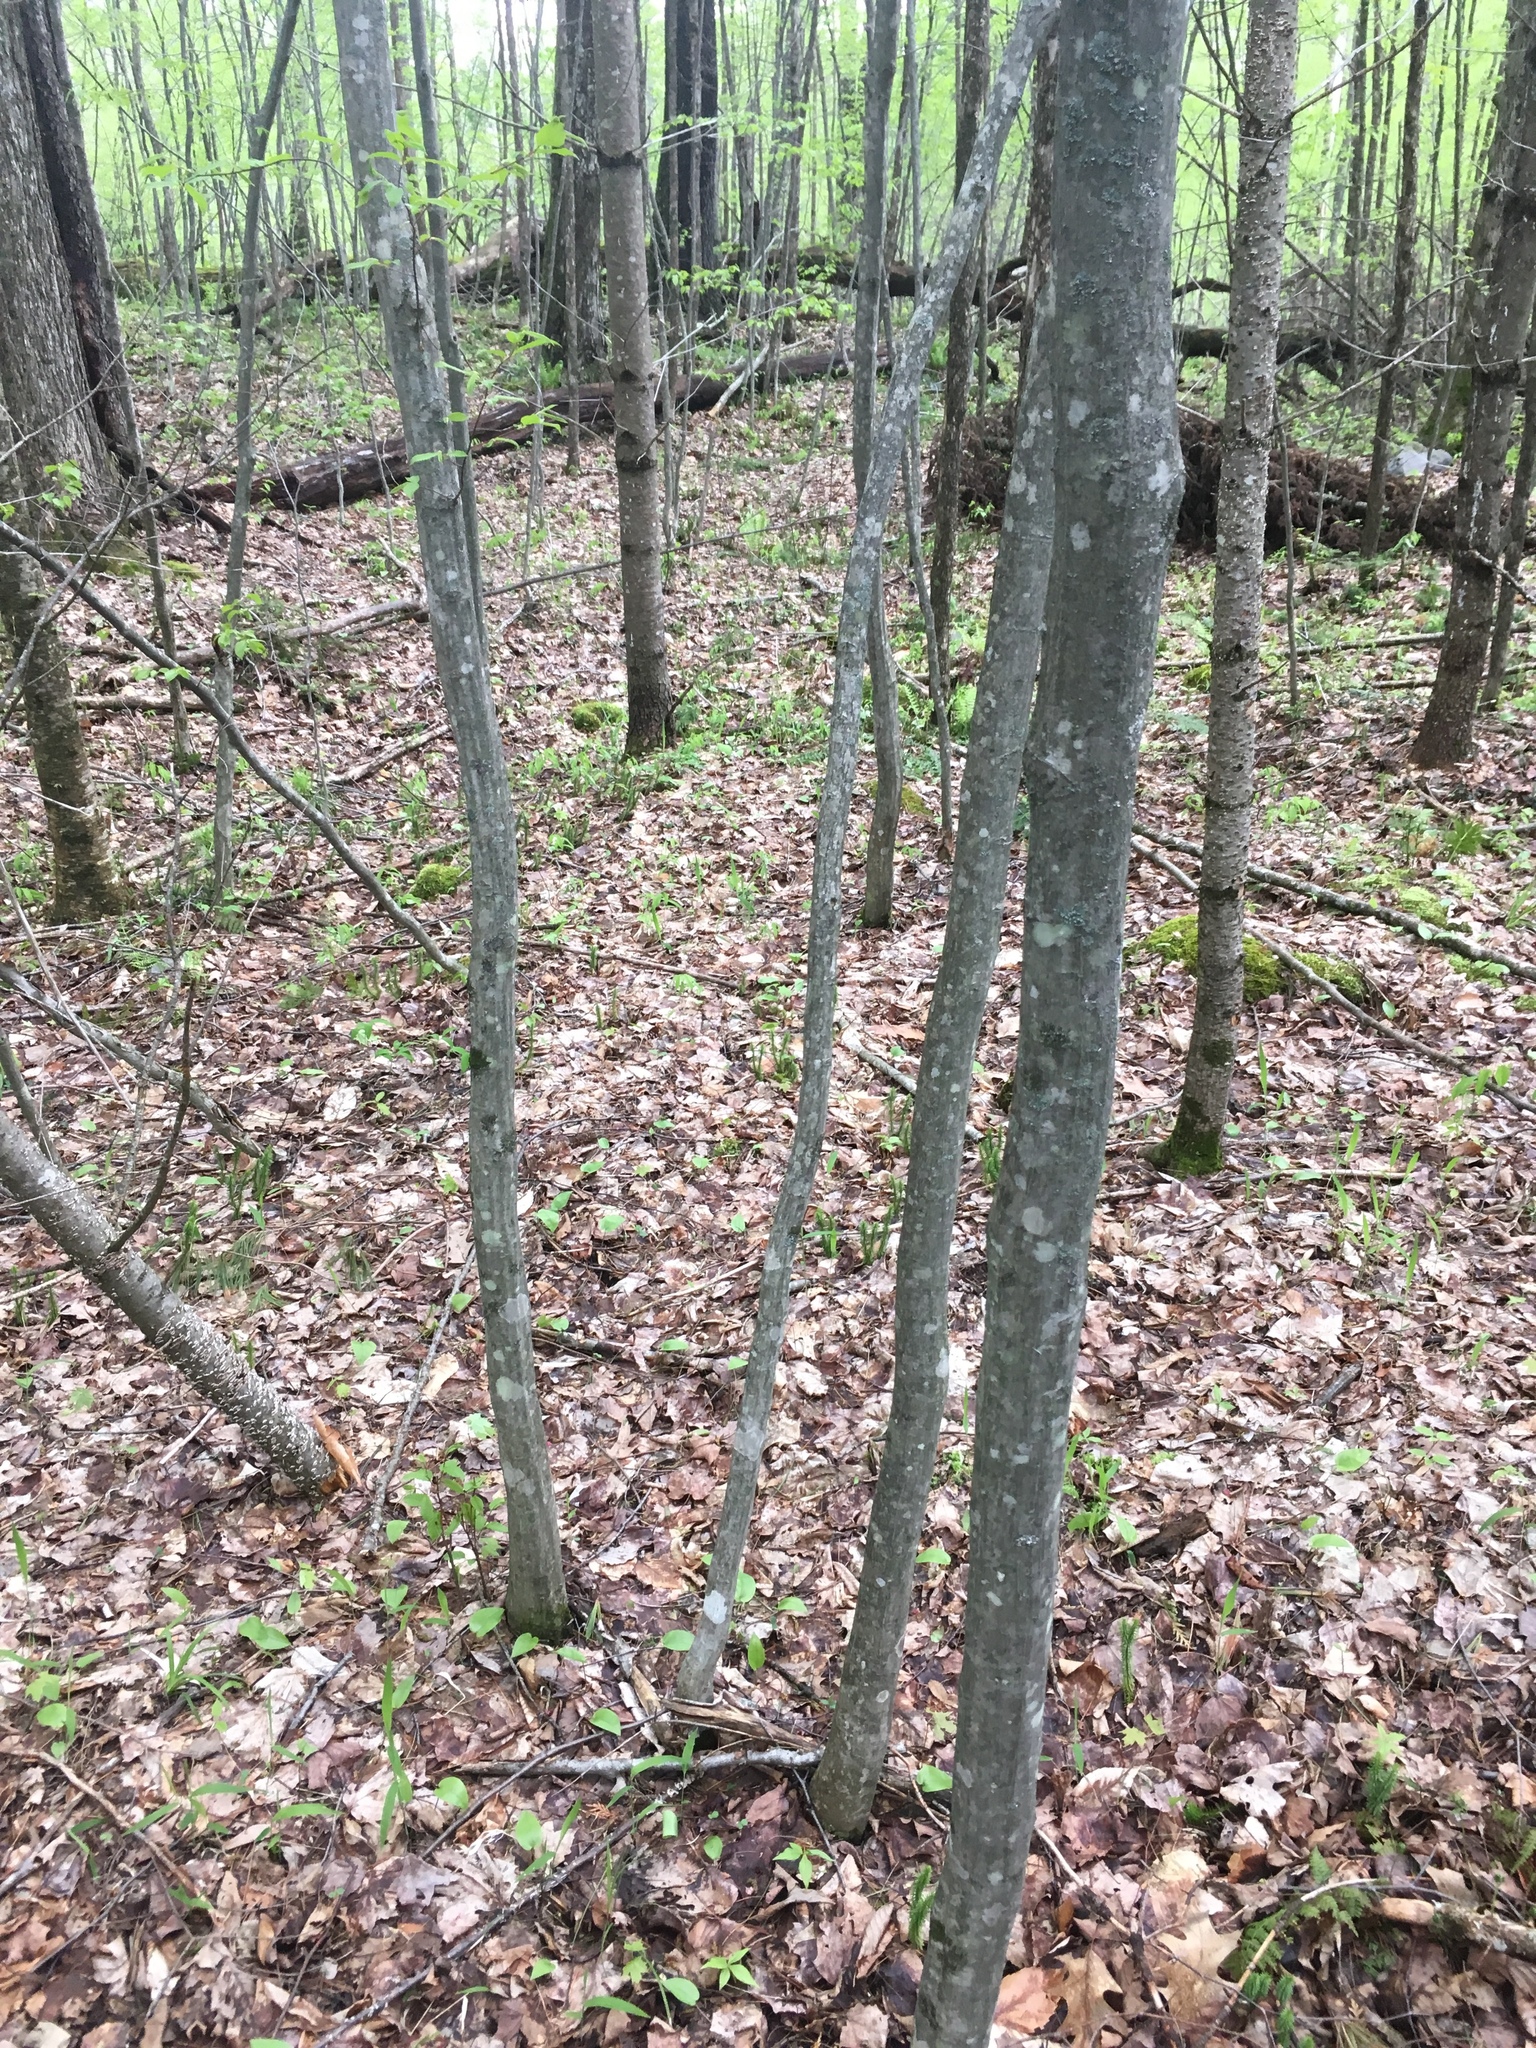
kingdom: Plantae
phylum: Tracheophyta
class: Magnoliopsida
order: Fagales
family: Betulaceae
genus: Carpinus
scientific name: Carpinus caroliniana
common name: American hornbeam
